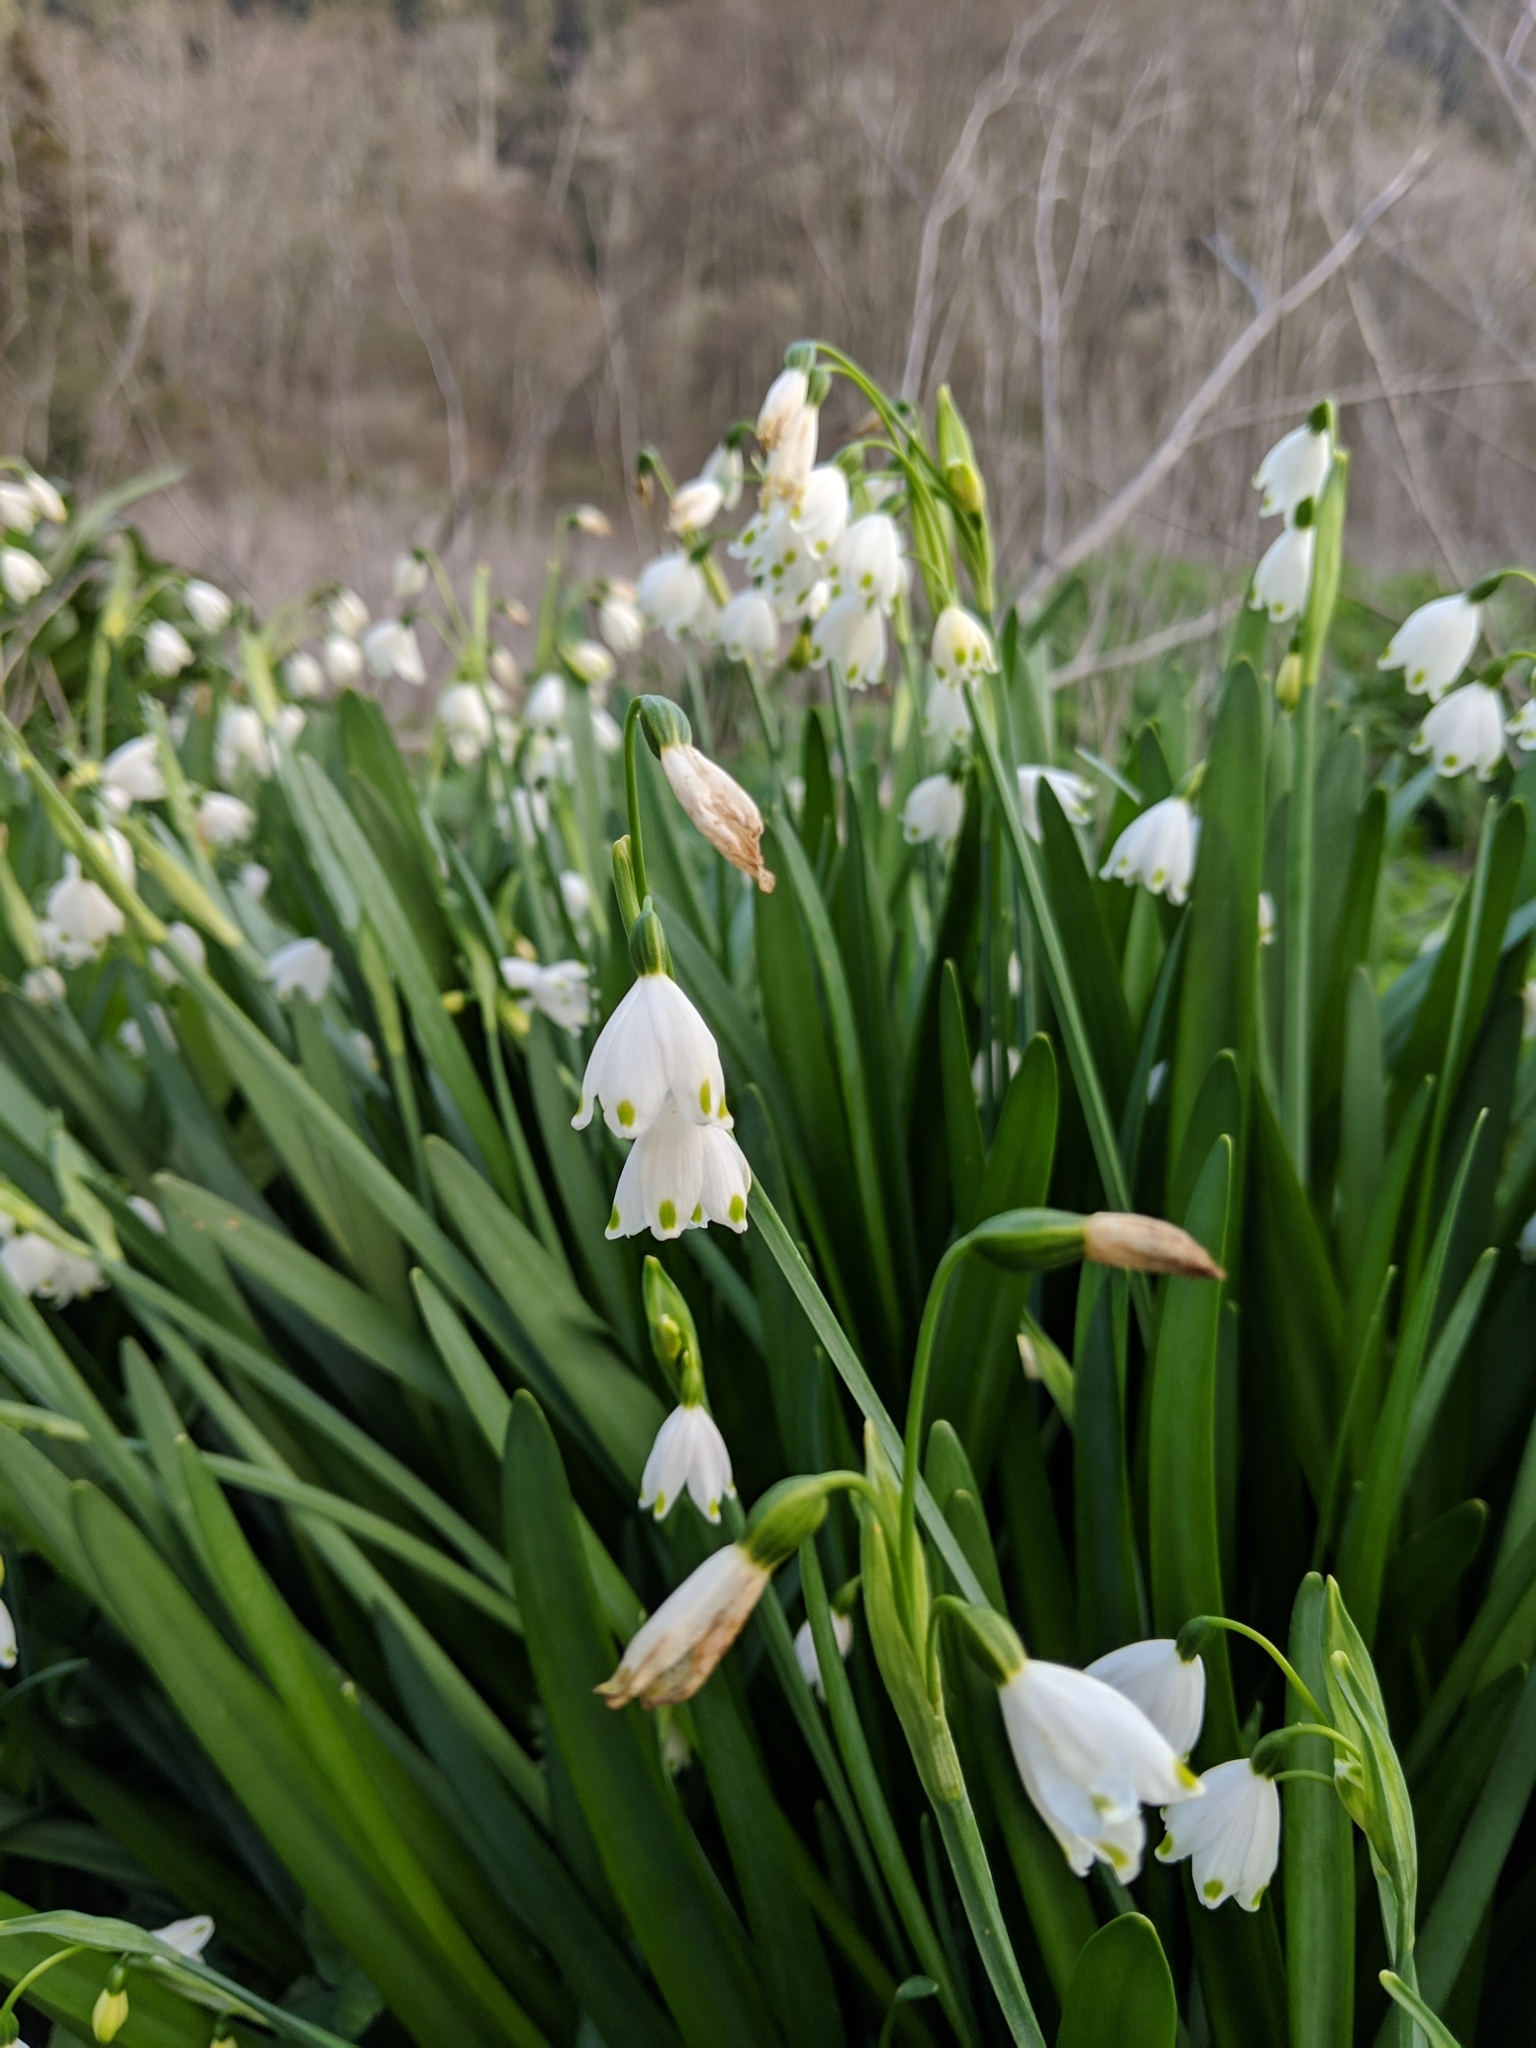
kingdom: Plantae
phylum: Tracheophyta
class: Liliopsida
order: Asparagales
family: Amaryllidaceae
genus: Leucojum
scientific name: Leucojum aestivum
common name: Summer snowflake
